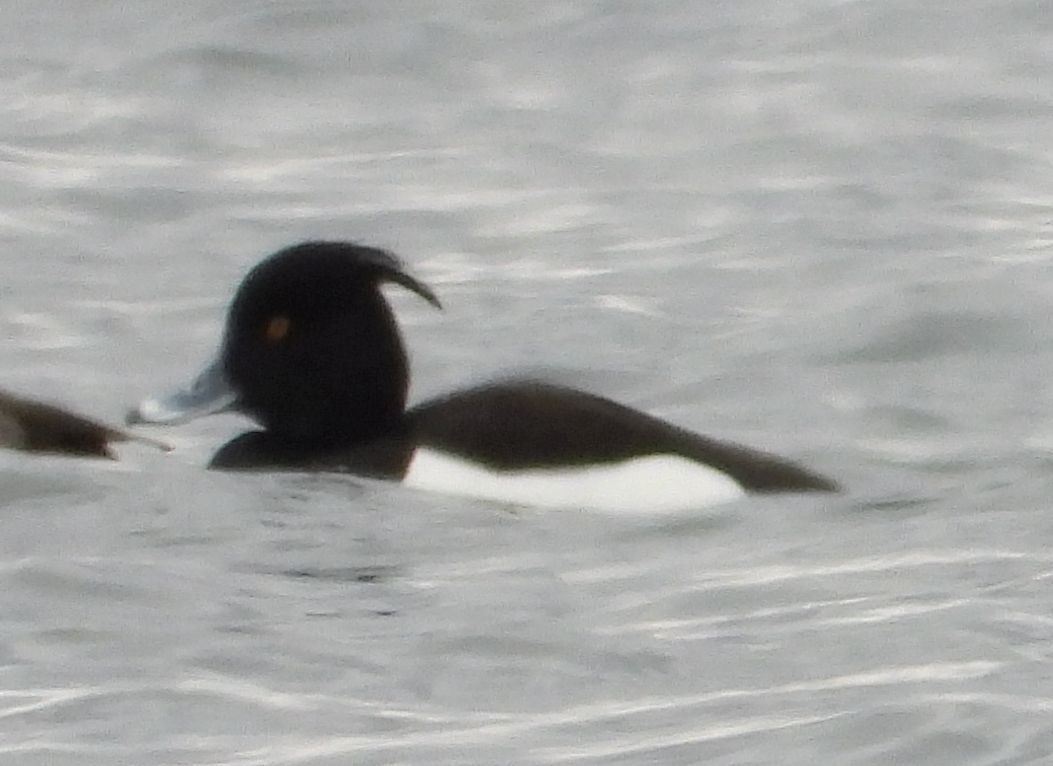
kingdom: Animalia
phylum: Chordata
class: Aves
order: Anseriformes
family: Anatidae
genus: Aythya
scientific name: Aythya fuligula
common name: Tufted duck
